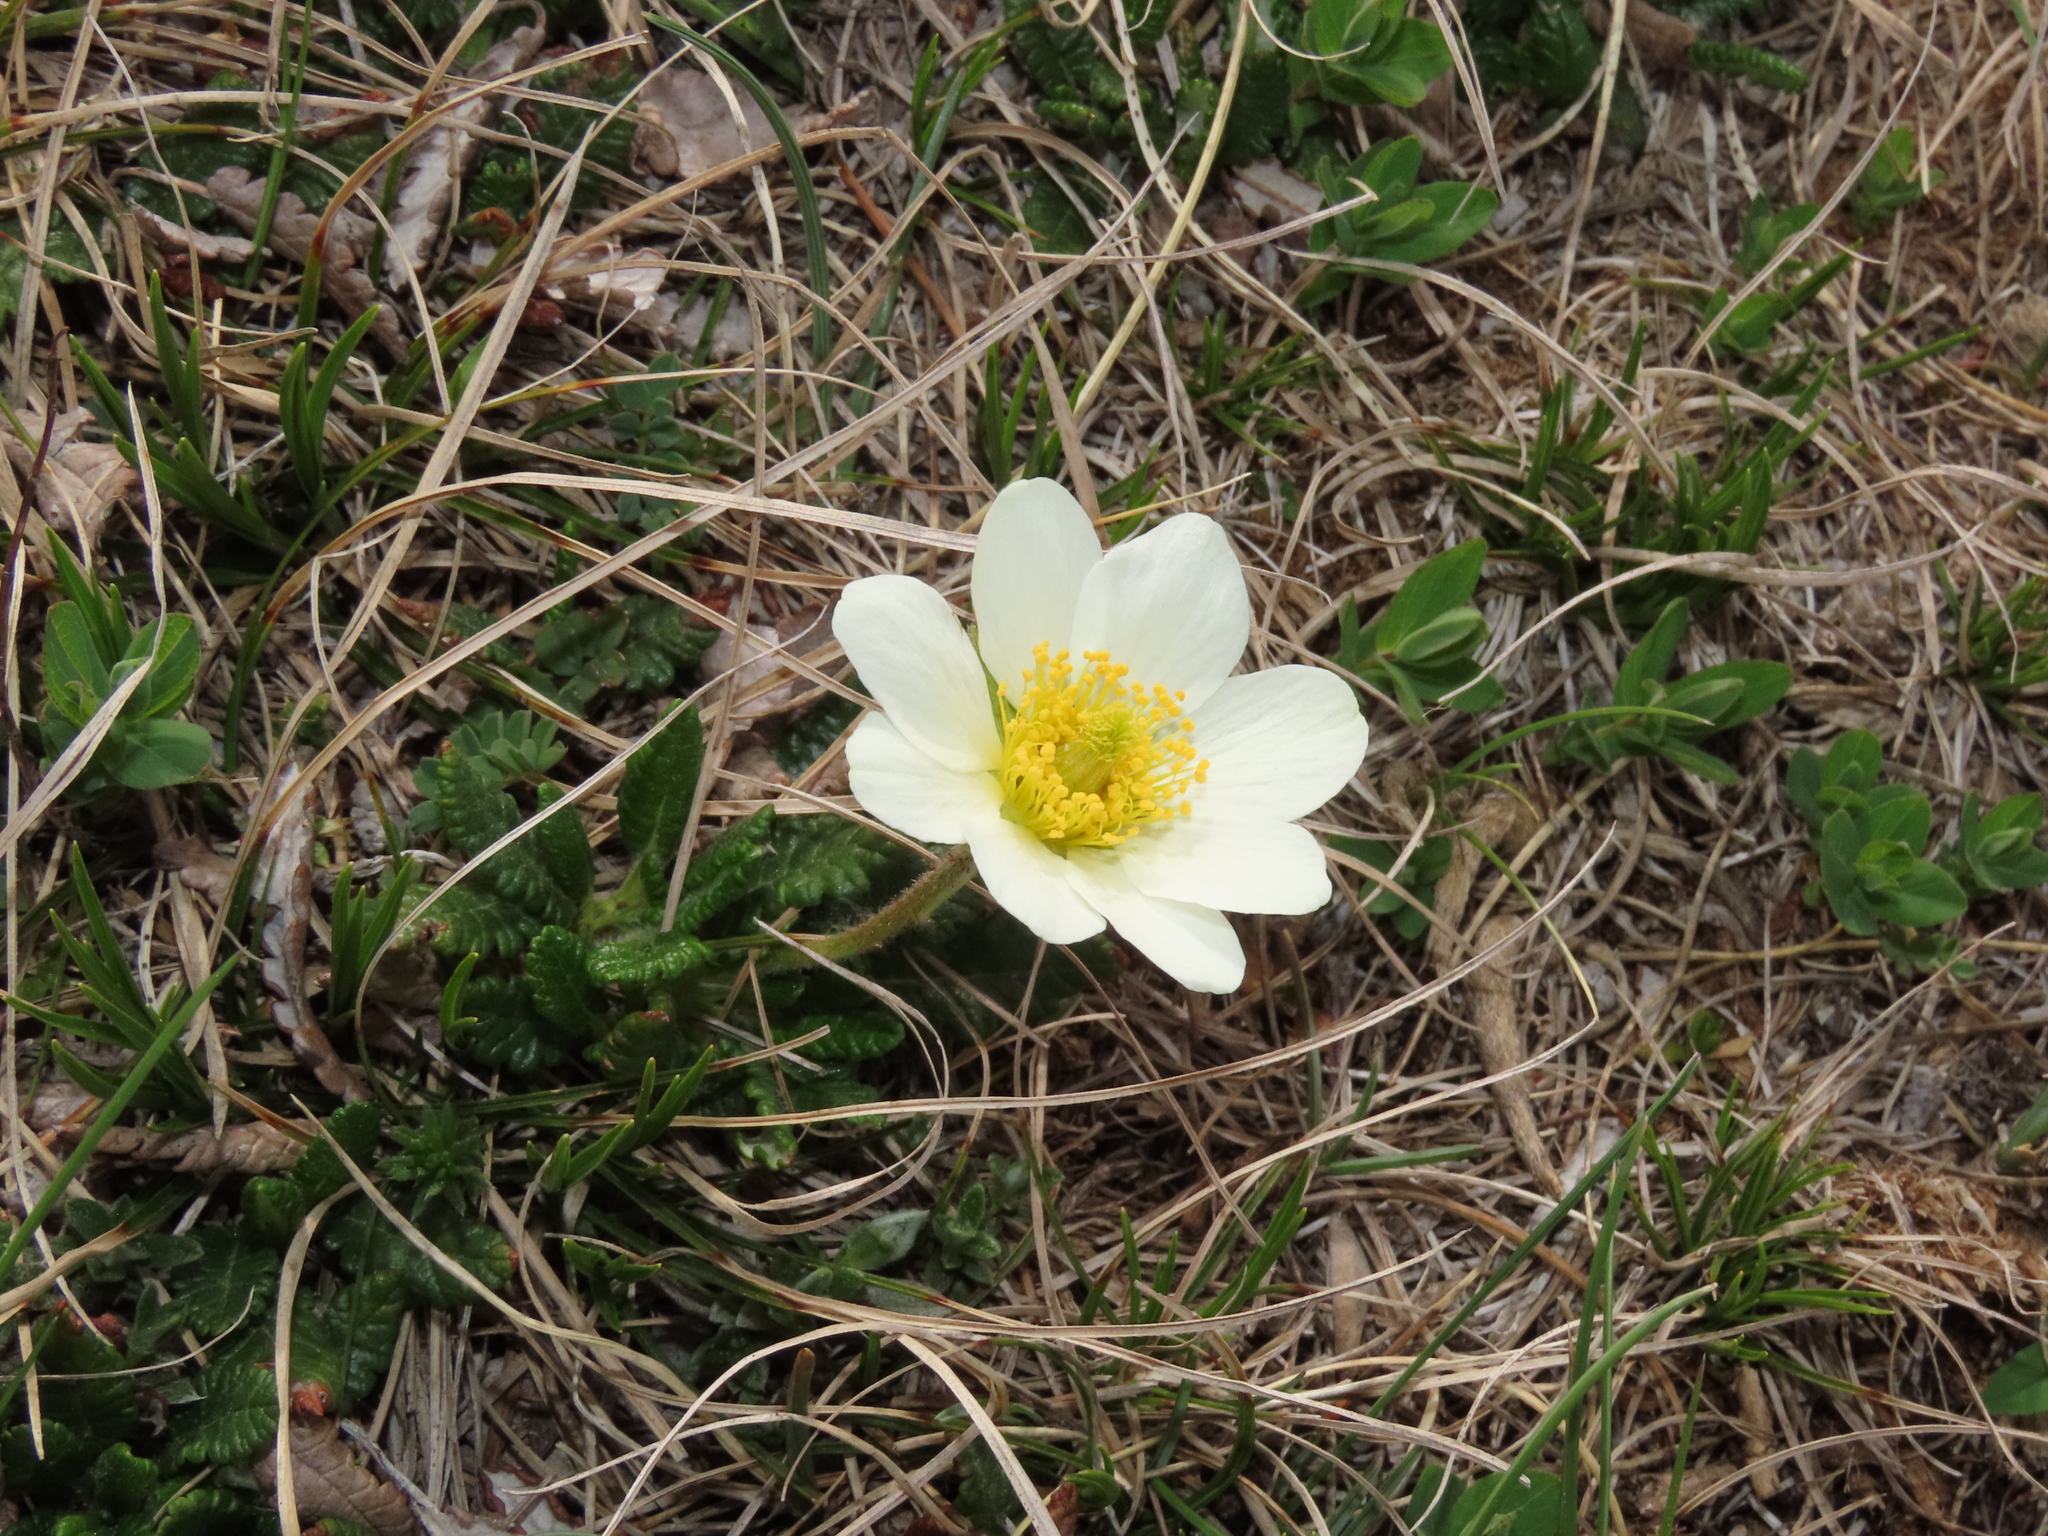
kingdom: Plantae
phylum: Tracheophyta
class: Magnoliopsida
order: Rosales
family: Rosaceae
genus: Dryas
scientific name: Dryas octopetala
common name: Eight-petal mountain-avens
